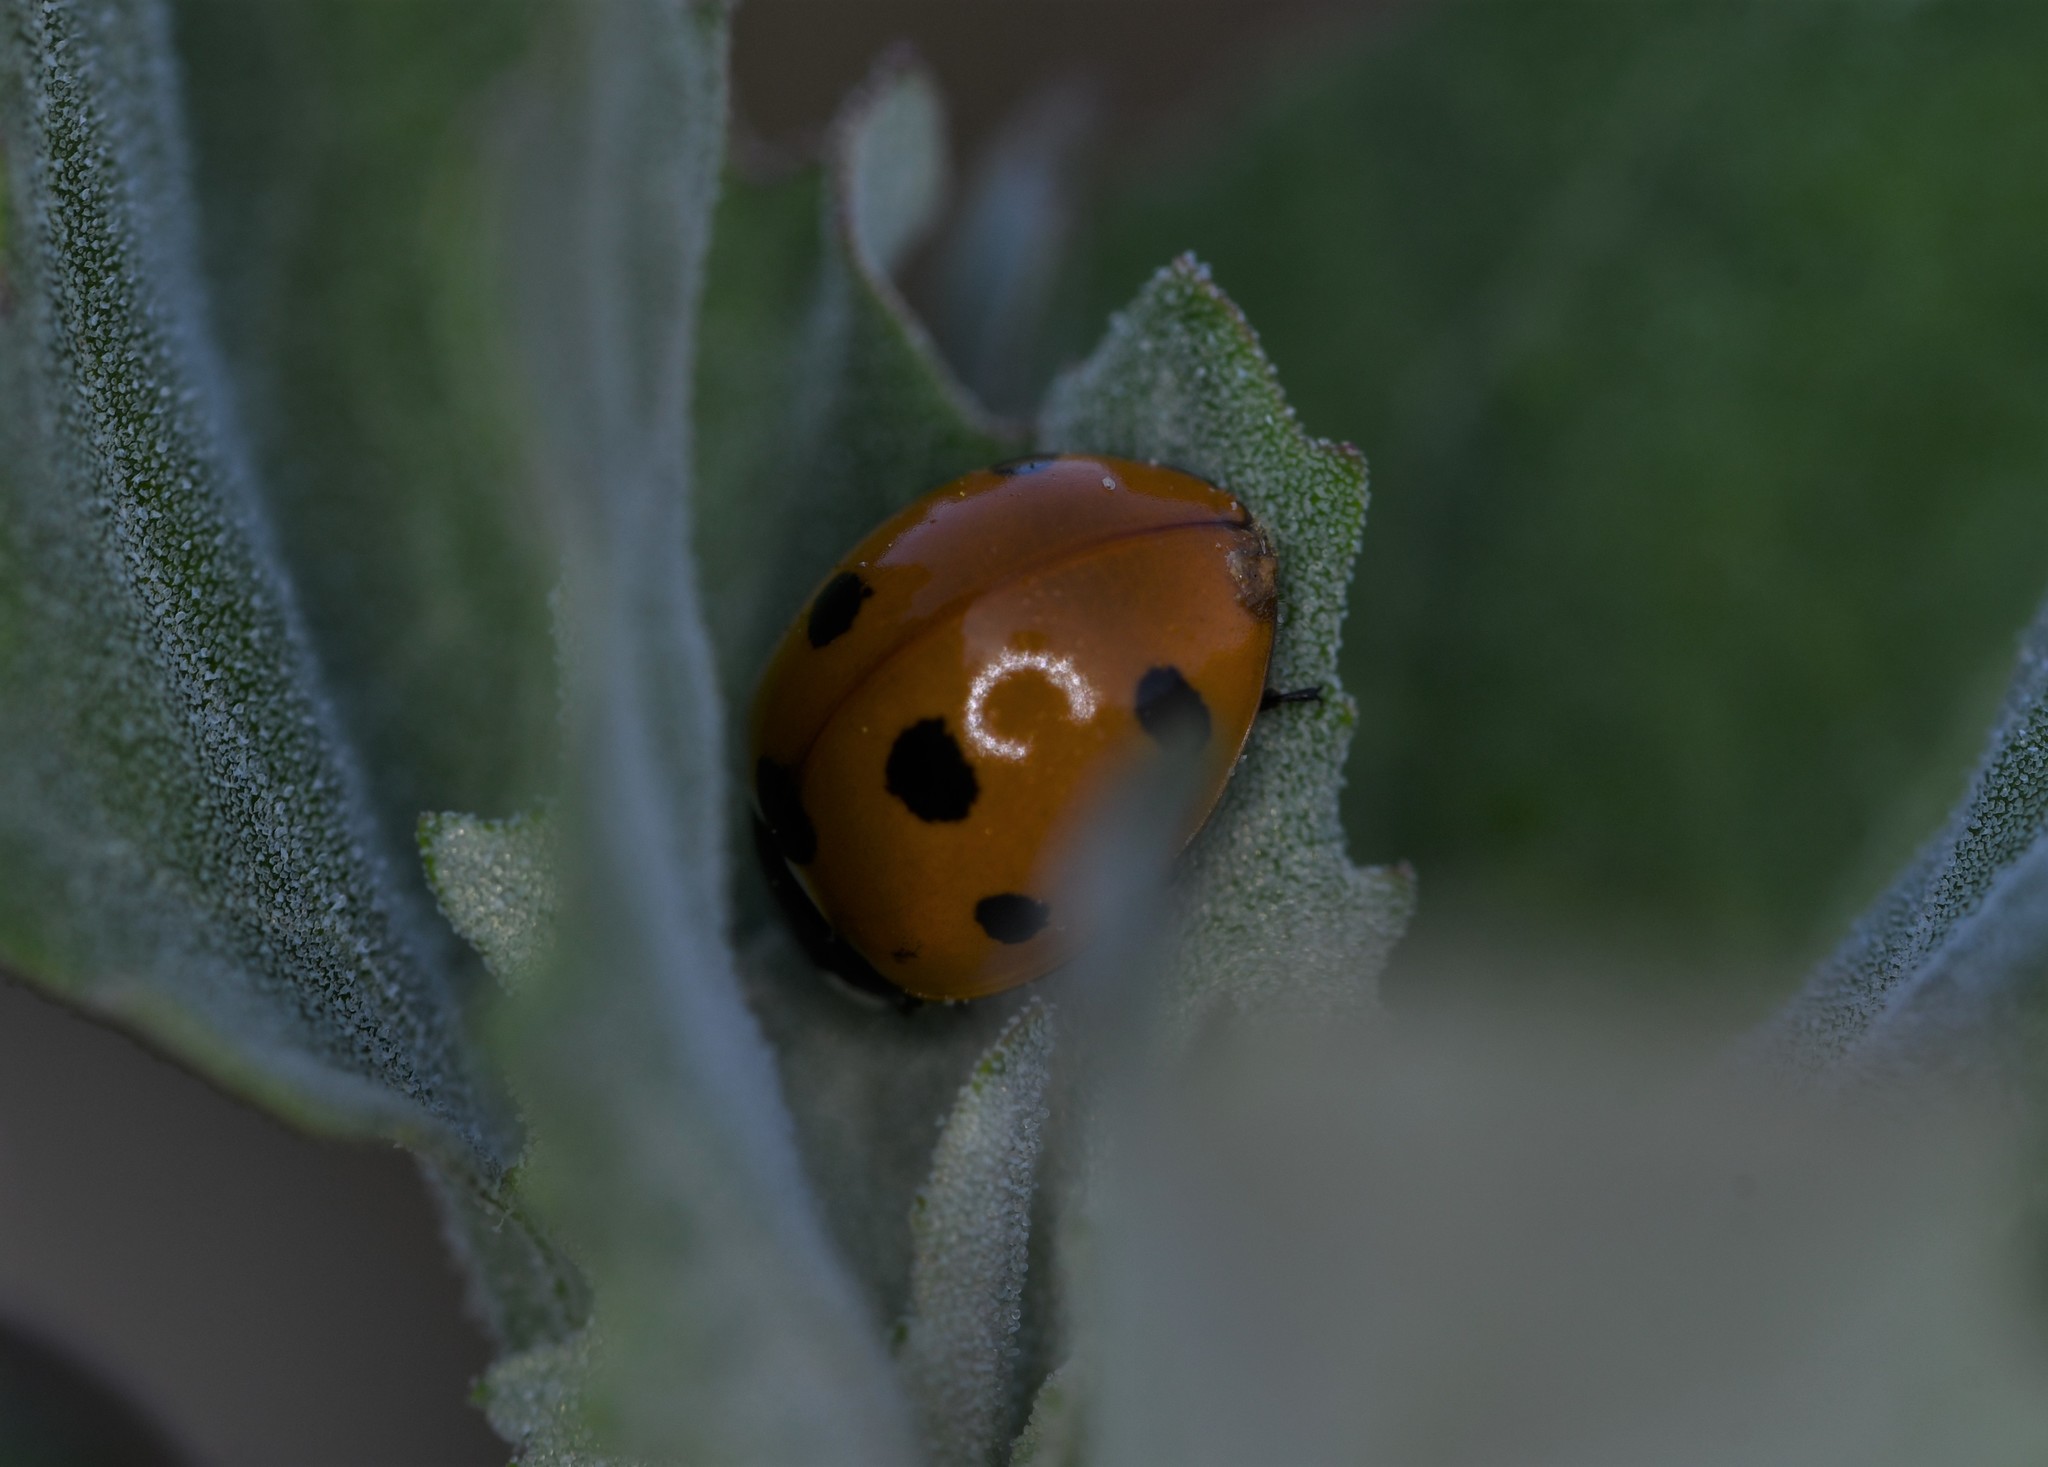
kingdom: Animalia
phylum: Arthropoda
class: Insecta
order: Coleoptera
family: Coccinellidae
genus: Coccinella
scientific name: Coccinella septempunctata
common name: Sevenspotted lady beetle
